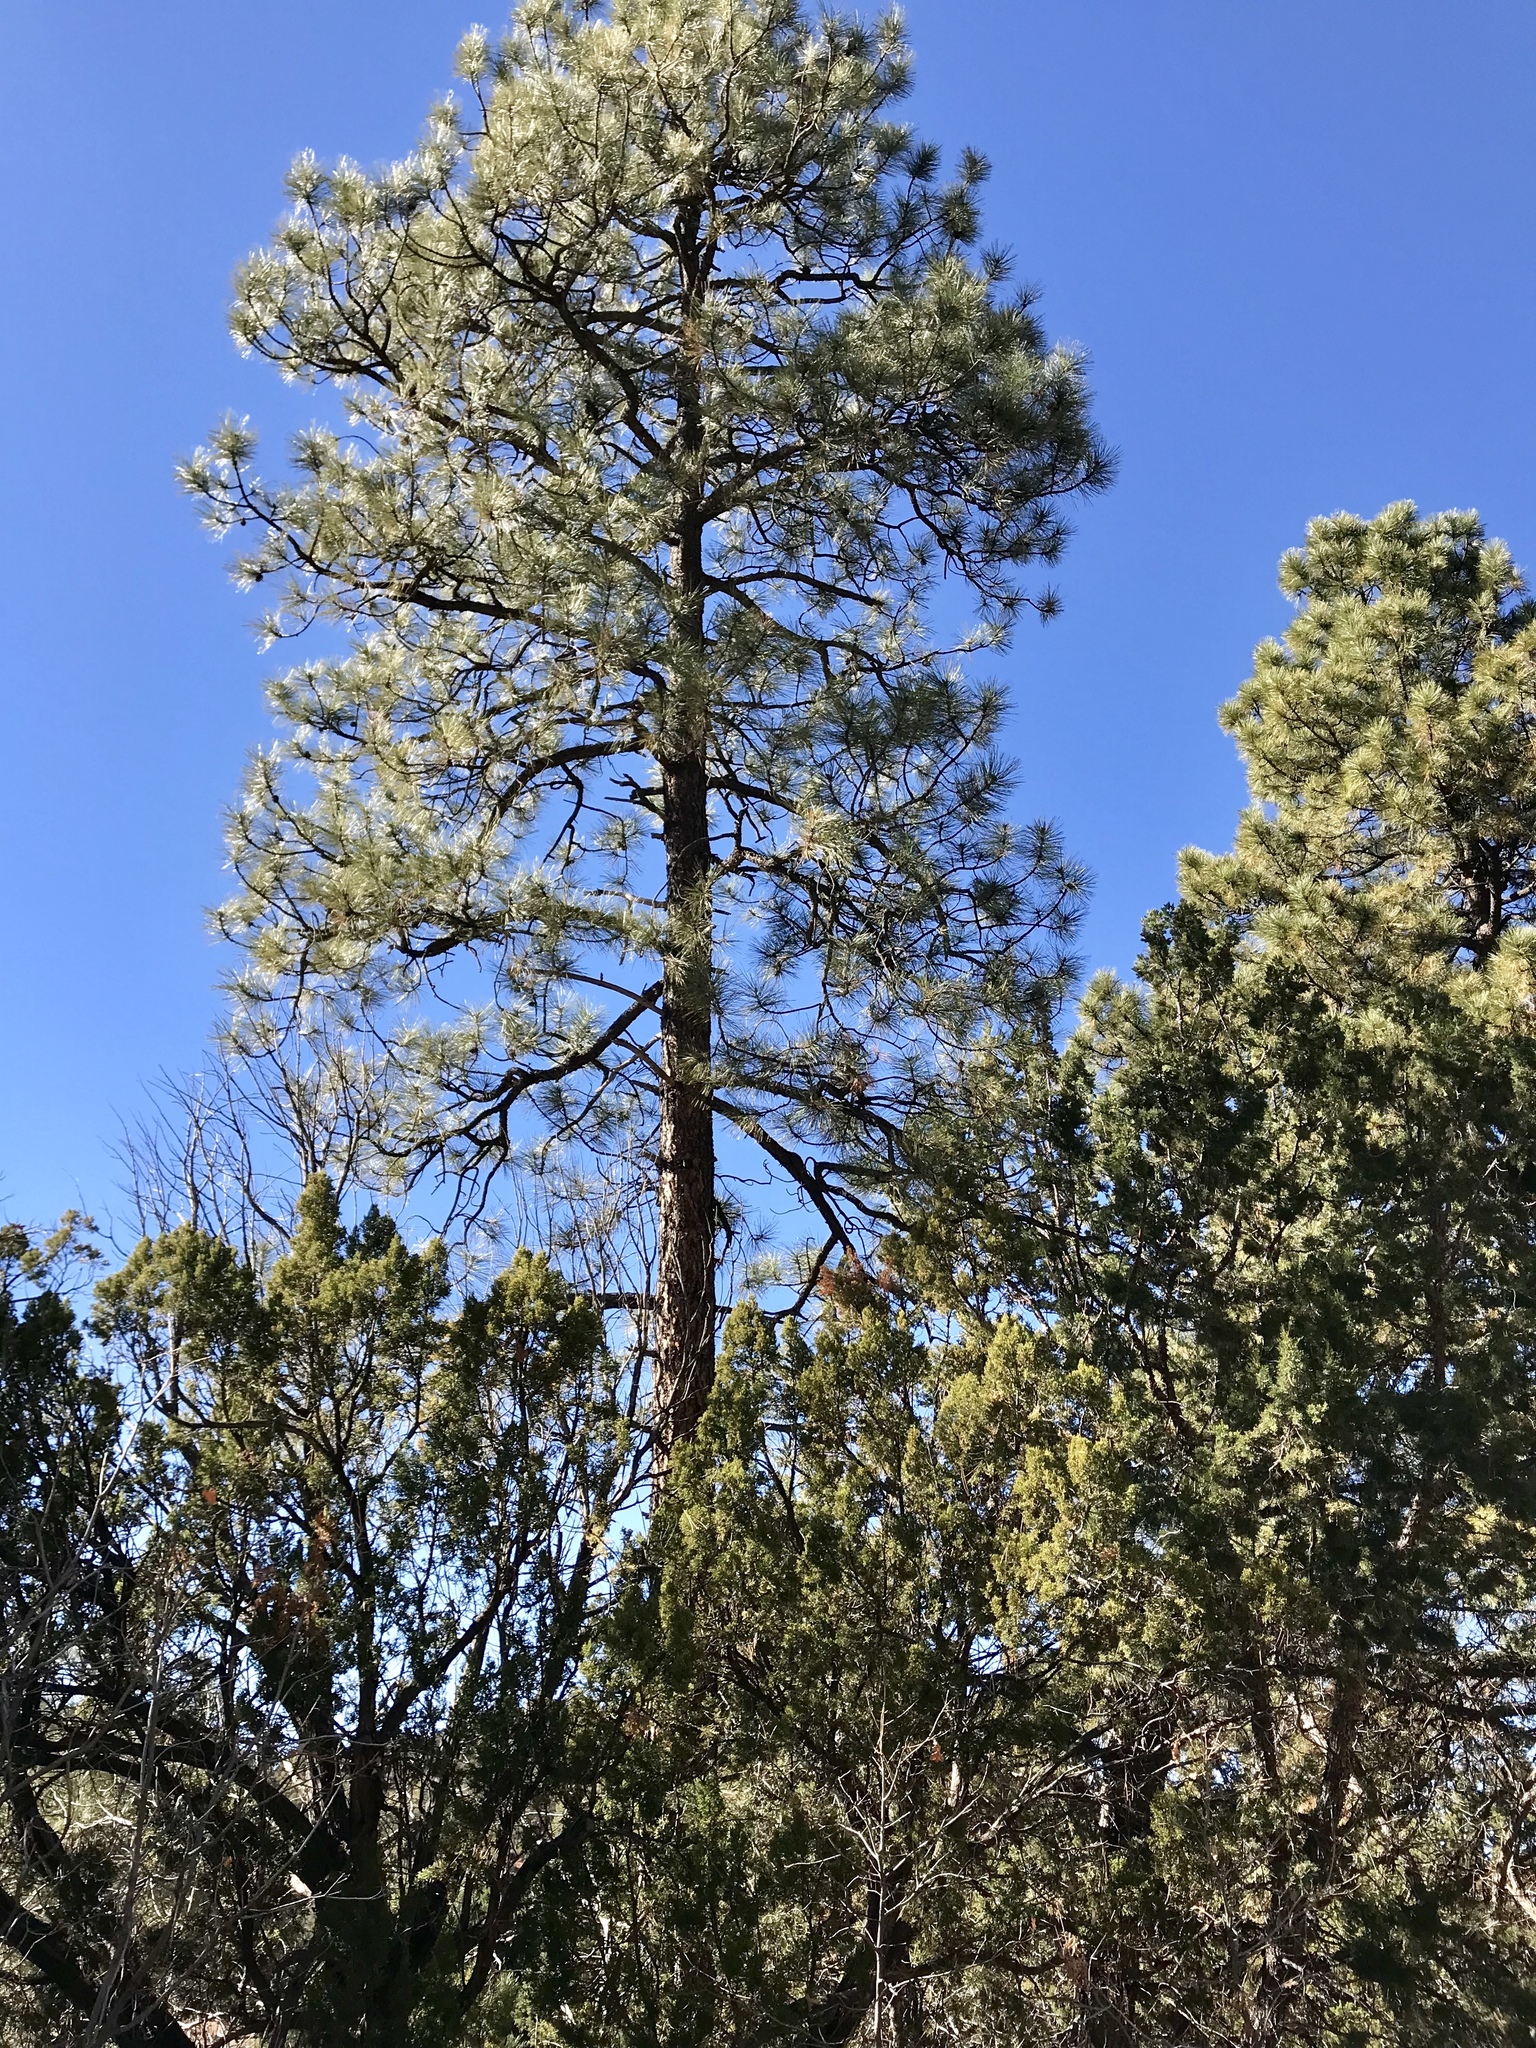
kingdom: Plantae
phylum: Tracheophyta
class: Pinopsida
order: Pinales
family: Pinaceae
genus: Pinus
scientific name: Pinus ponderosa
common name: Western yellow-pine
